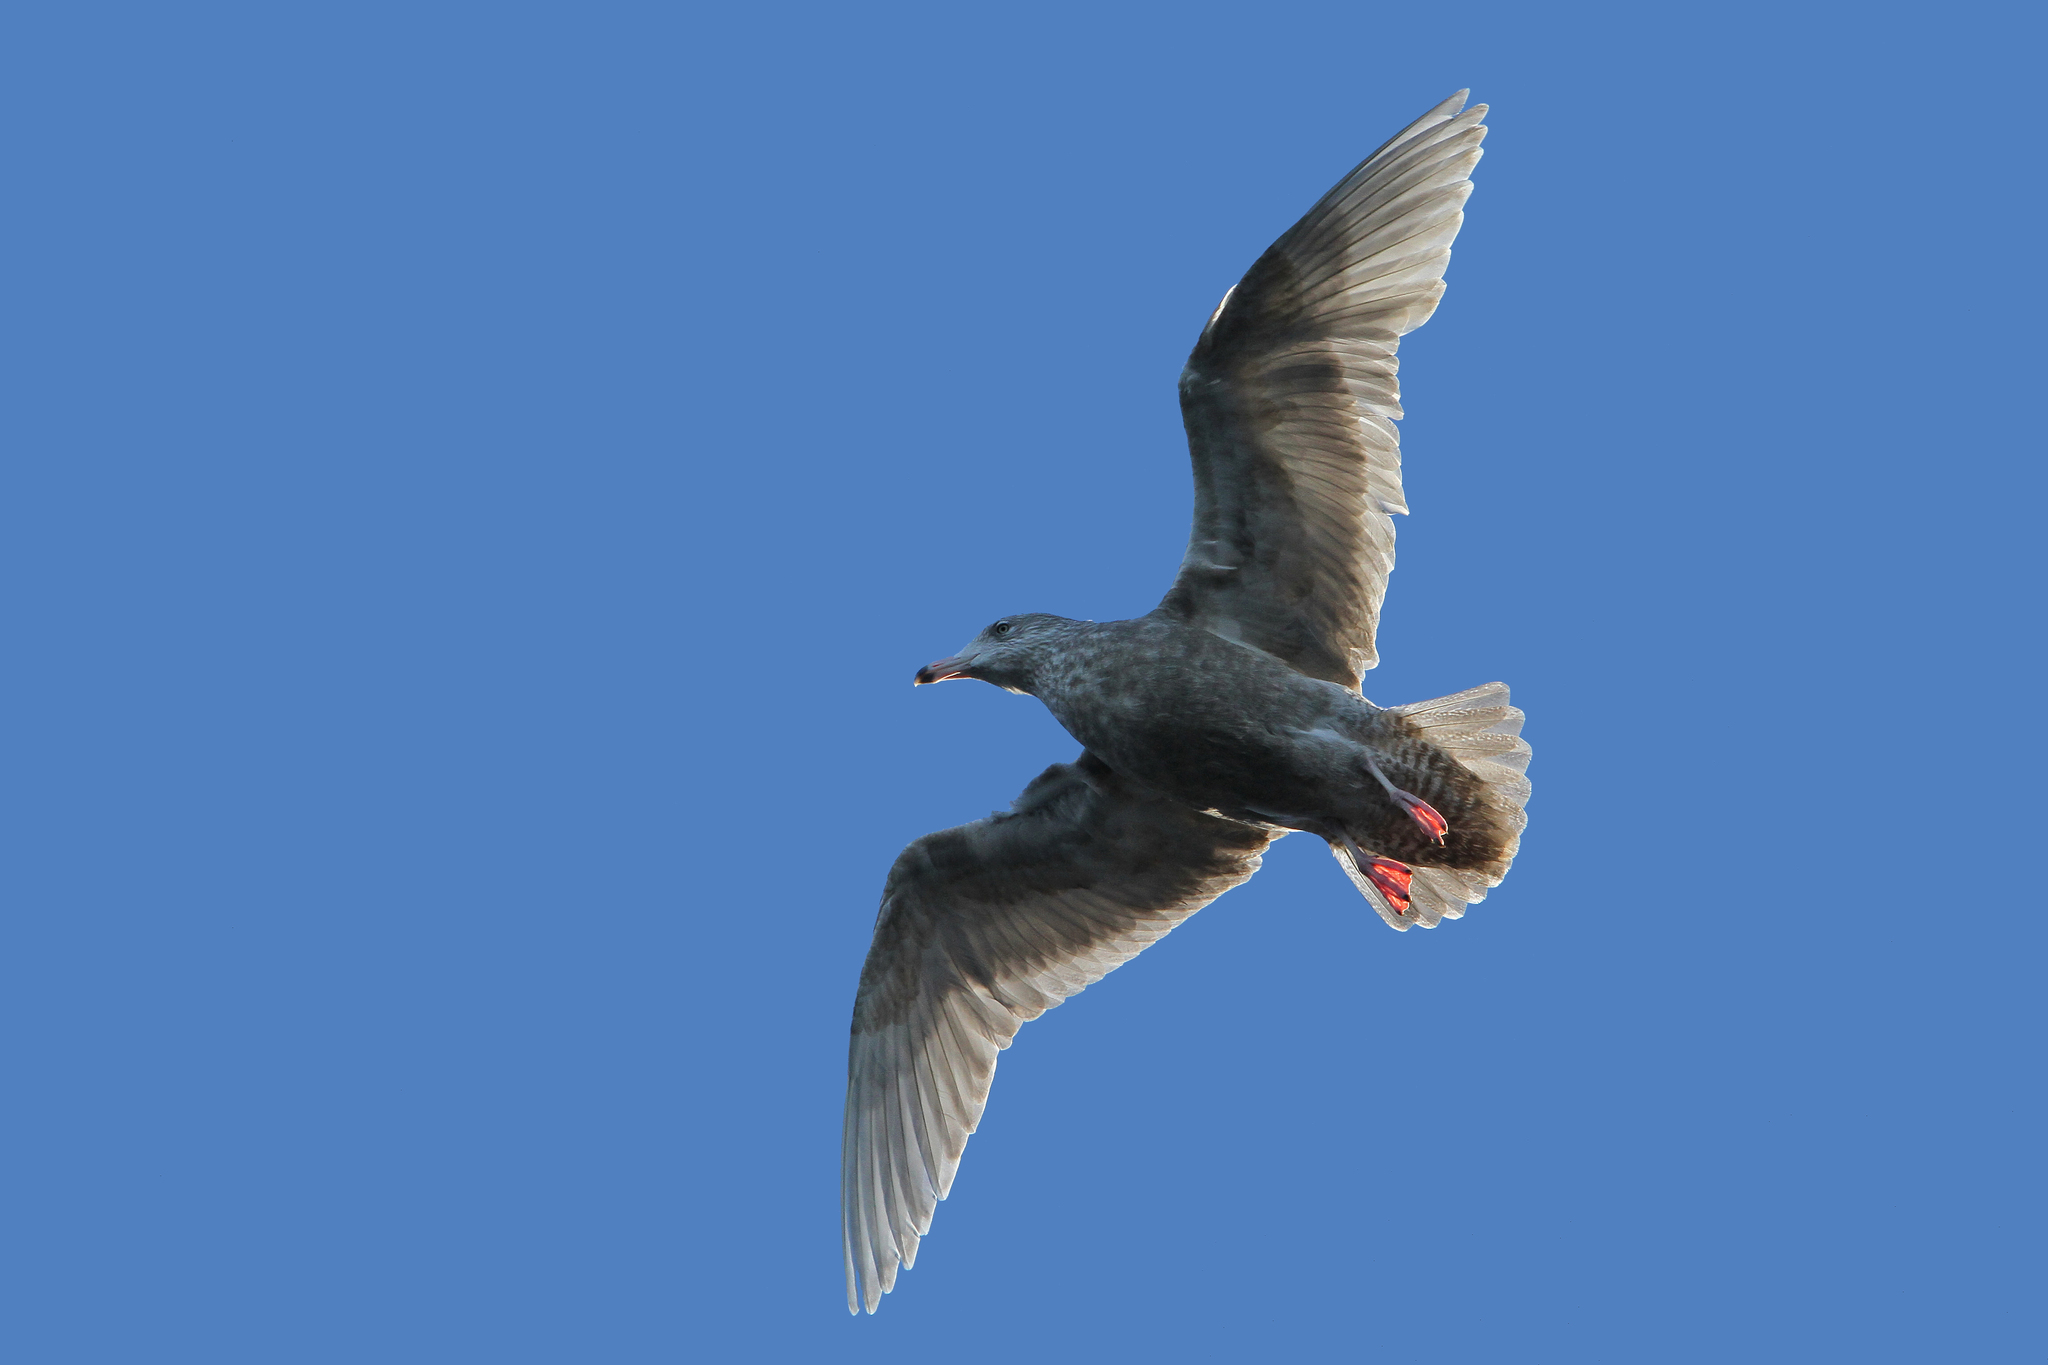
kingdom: Animalia
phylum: Chordata
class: Aves
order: Charadriiformes
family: Laridae
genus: Larus
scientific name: Larus hyperboreus
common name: Glaucous gull
